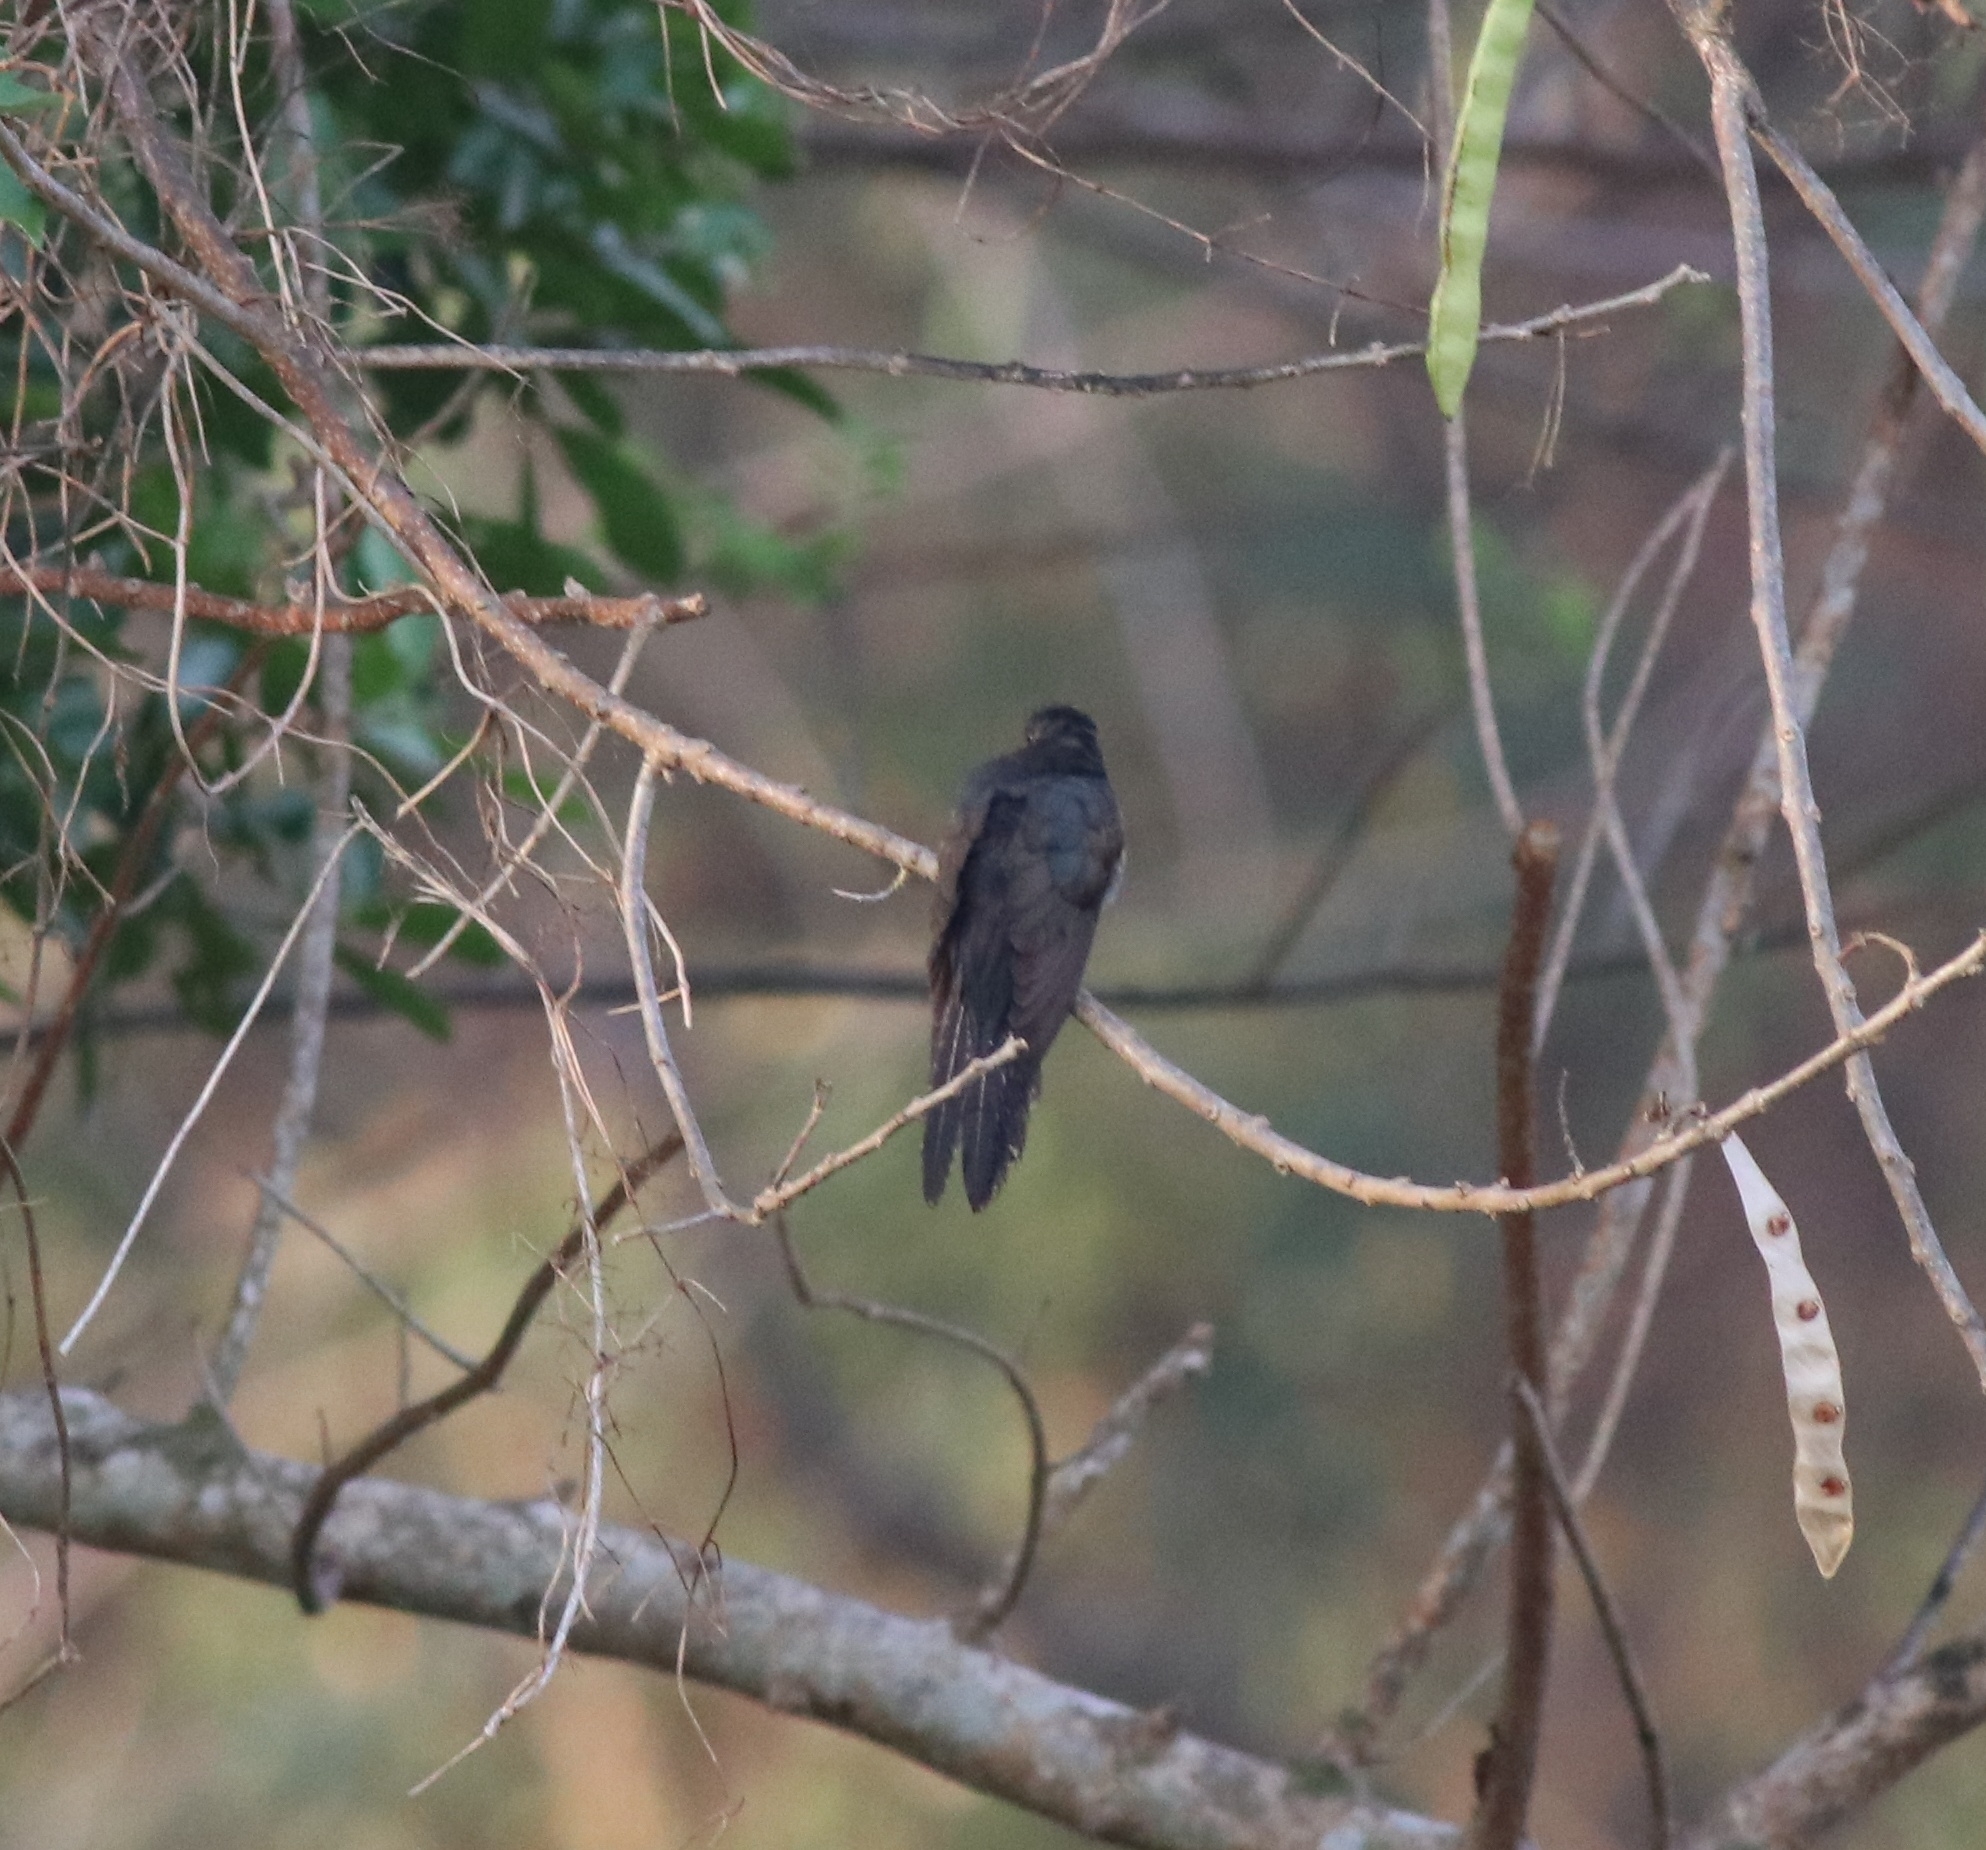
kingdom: Animalia
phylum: Chordata
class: Aves
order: Cuculiformes
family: Cuculidae
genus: Cacomantis
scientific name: Cacomantis passerinus
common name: Grey-bellied cuckoo
